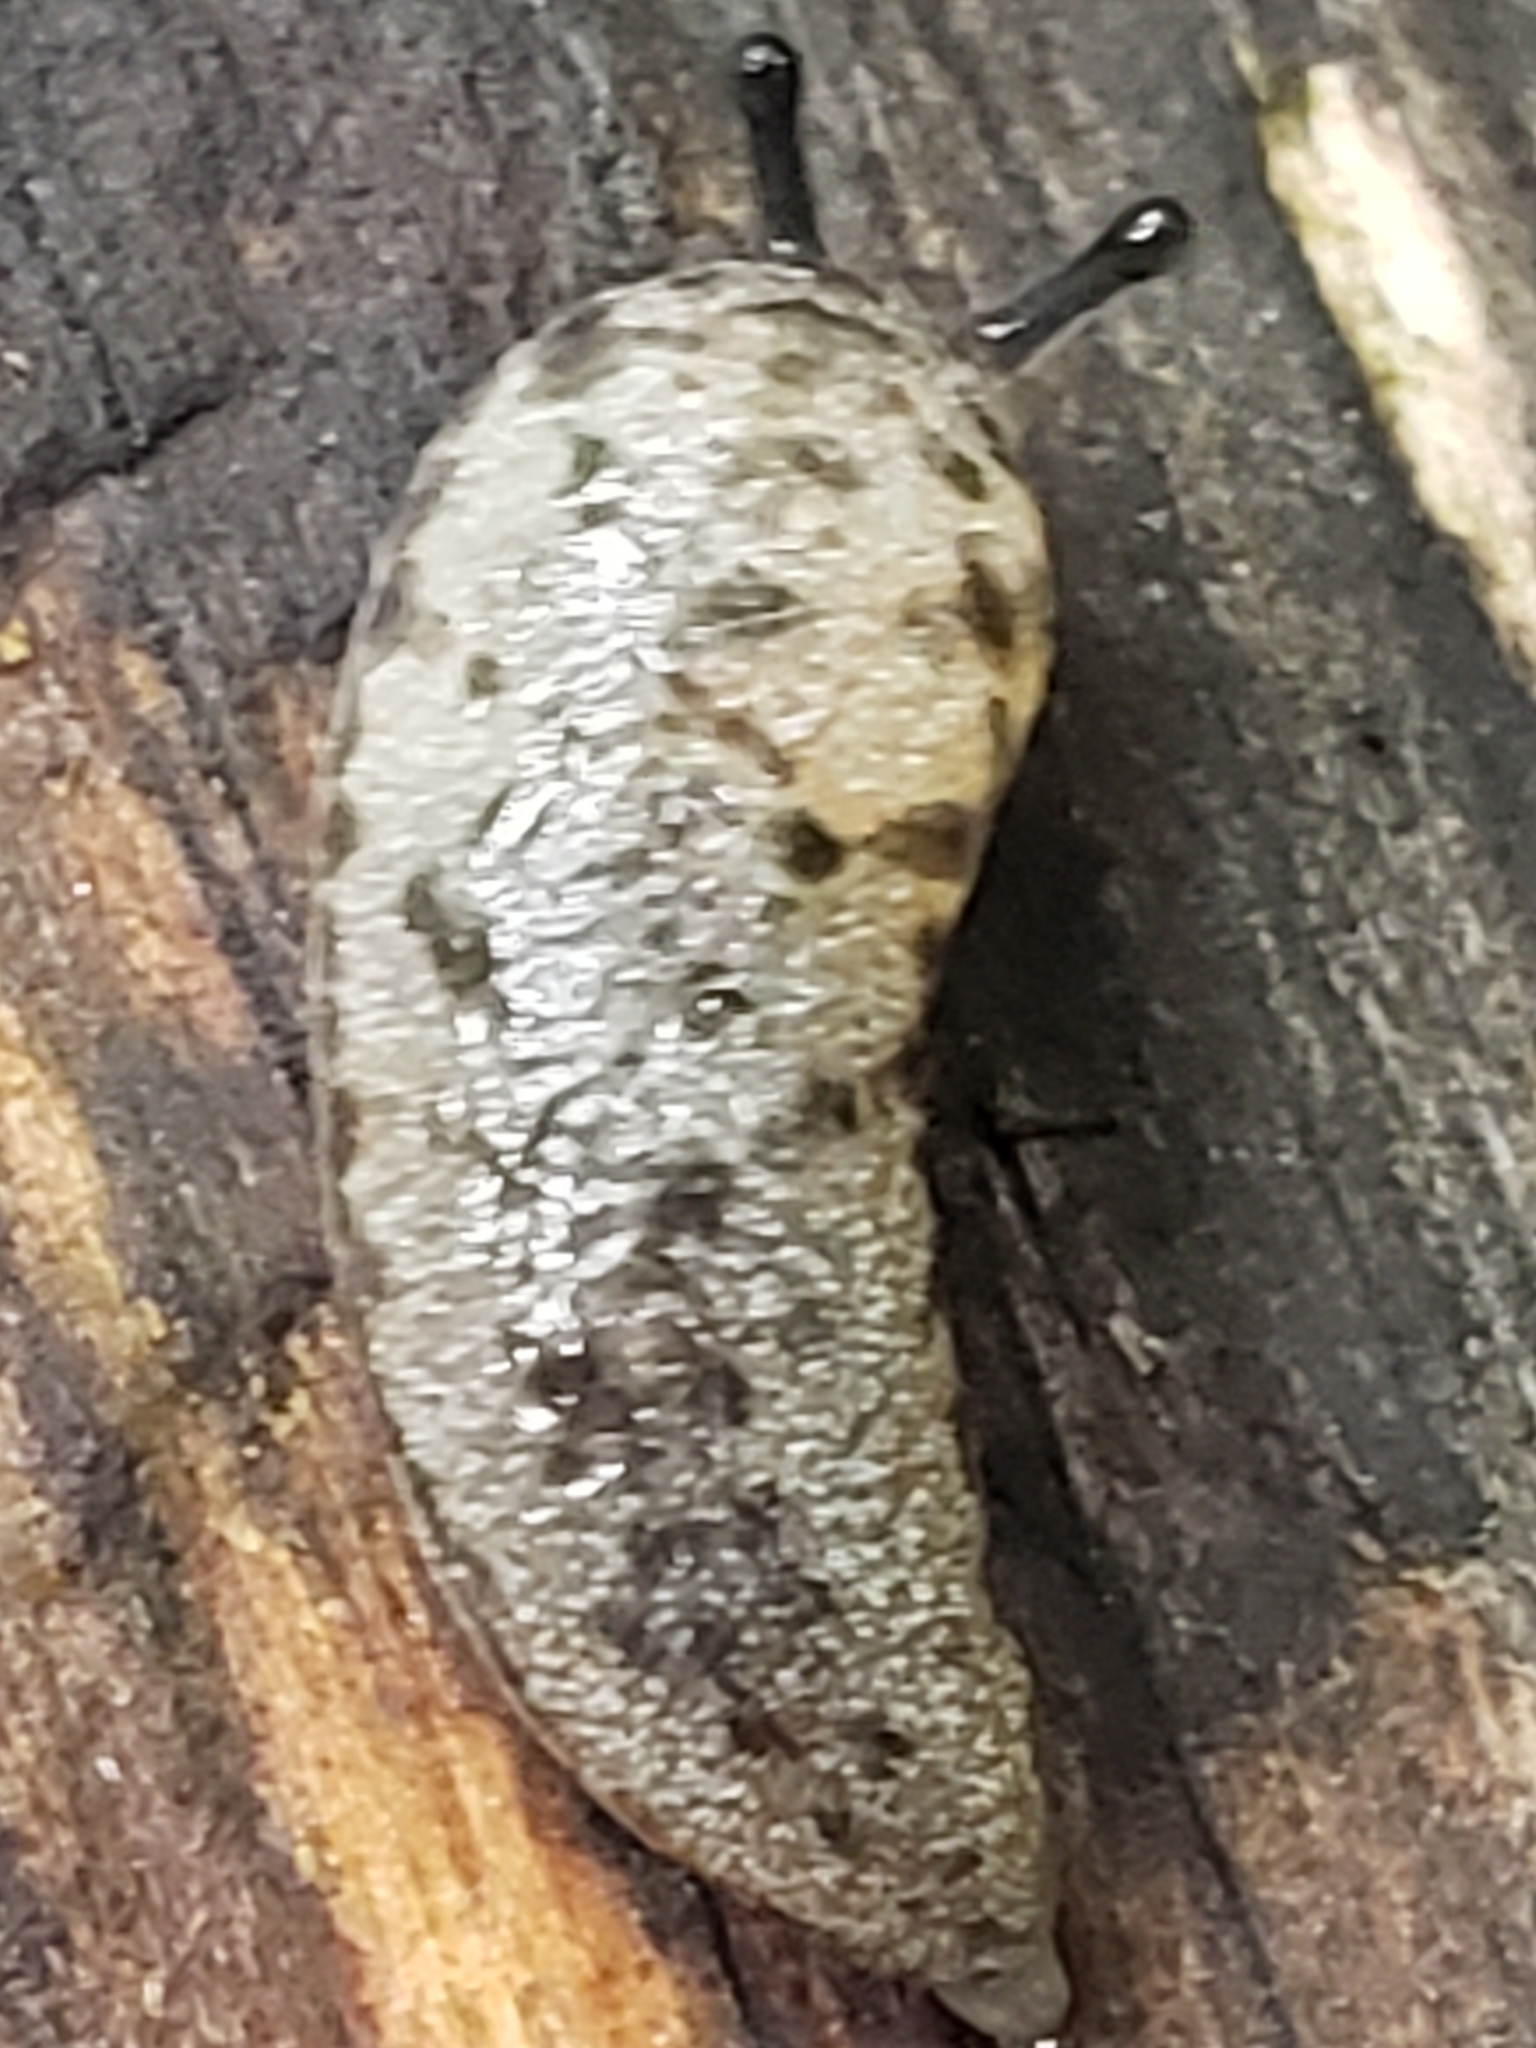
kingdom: Animalia
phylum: Mollusca
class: Gastropoda
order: Stylommatophora
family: Philomycidae
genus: Megapallifera
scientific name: Megapallifera mutabilis
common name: Changeable mantleslug
